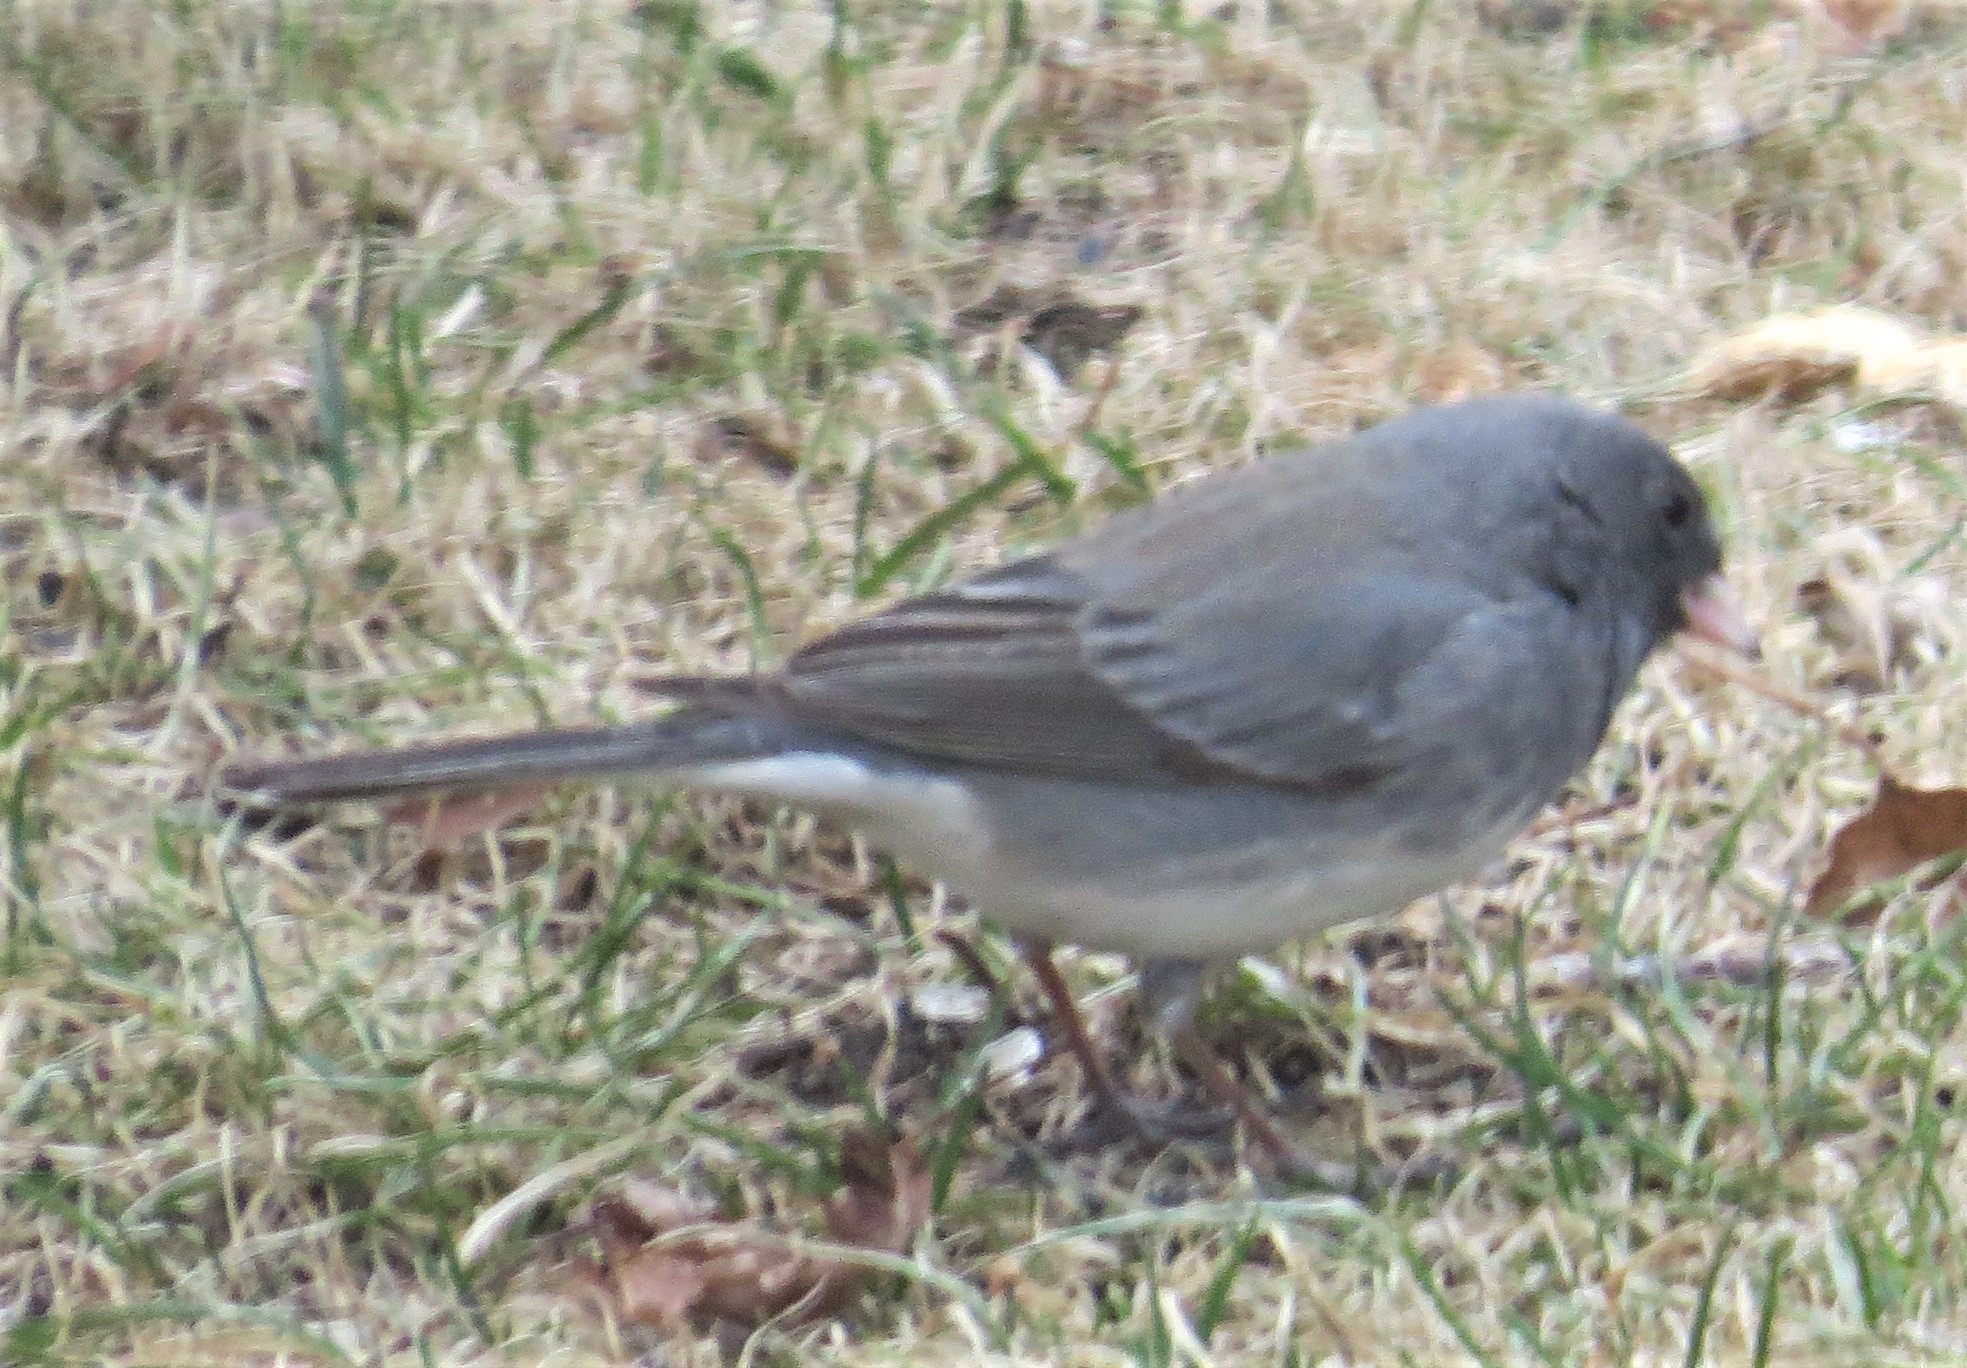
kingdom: Animalia
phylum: Chordata
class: Aves
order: Passeriformes
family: Passerellidae
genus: Junco
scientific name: Junco hyemalis
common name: Dark-eyed junco
